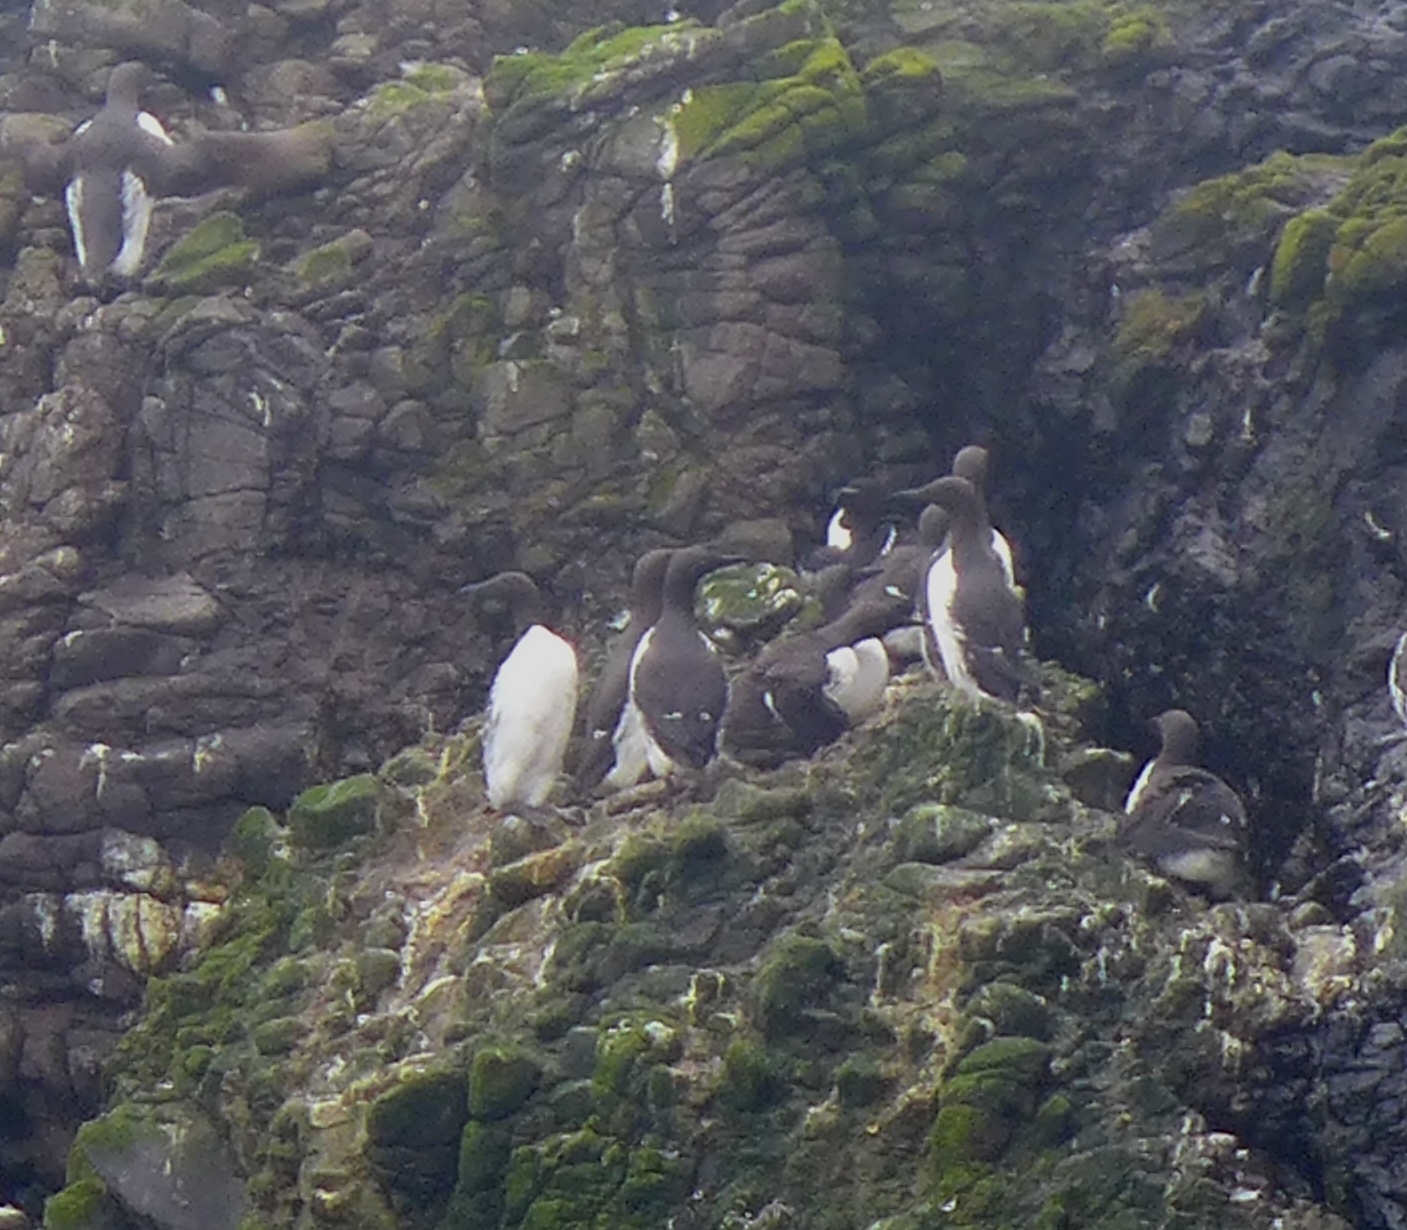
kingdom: Animalia
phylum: Chordata
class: Aves
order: Charadriiformes
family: Alcidae
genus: Uria
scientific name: Uria aalge
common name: Common murre
